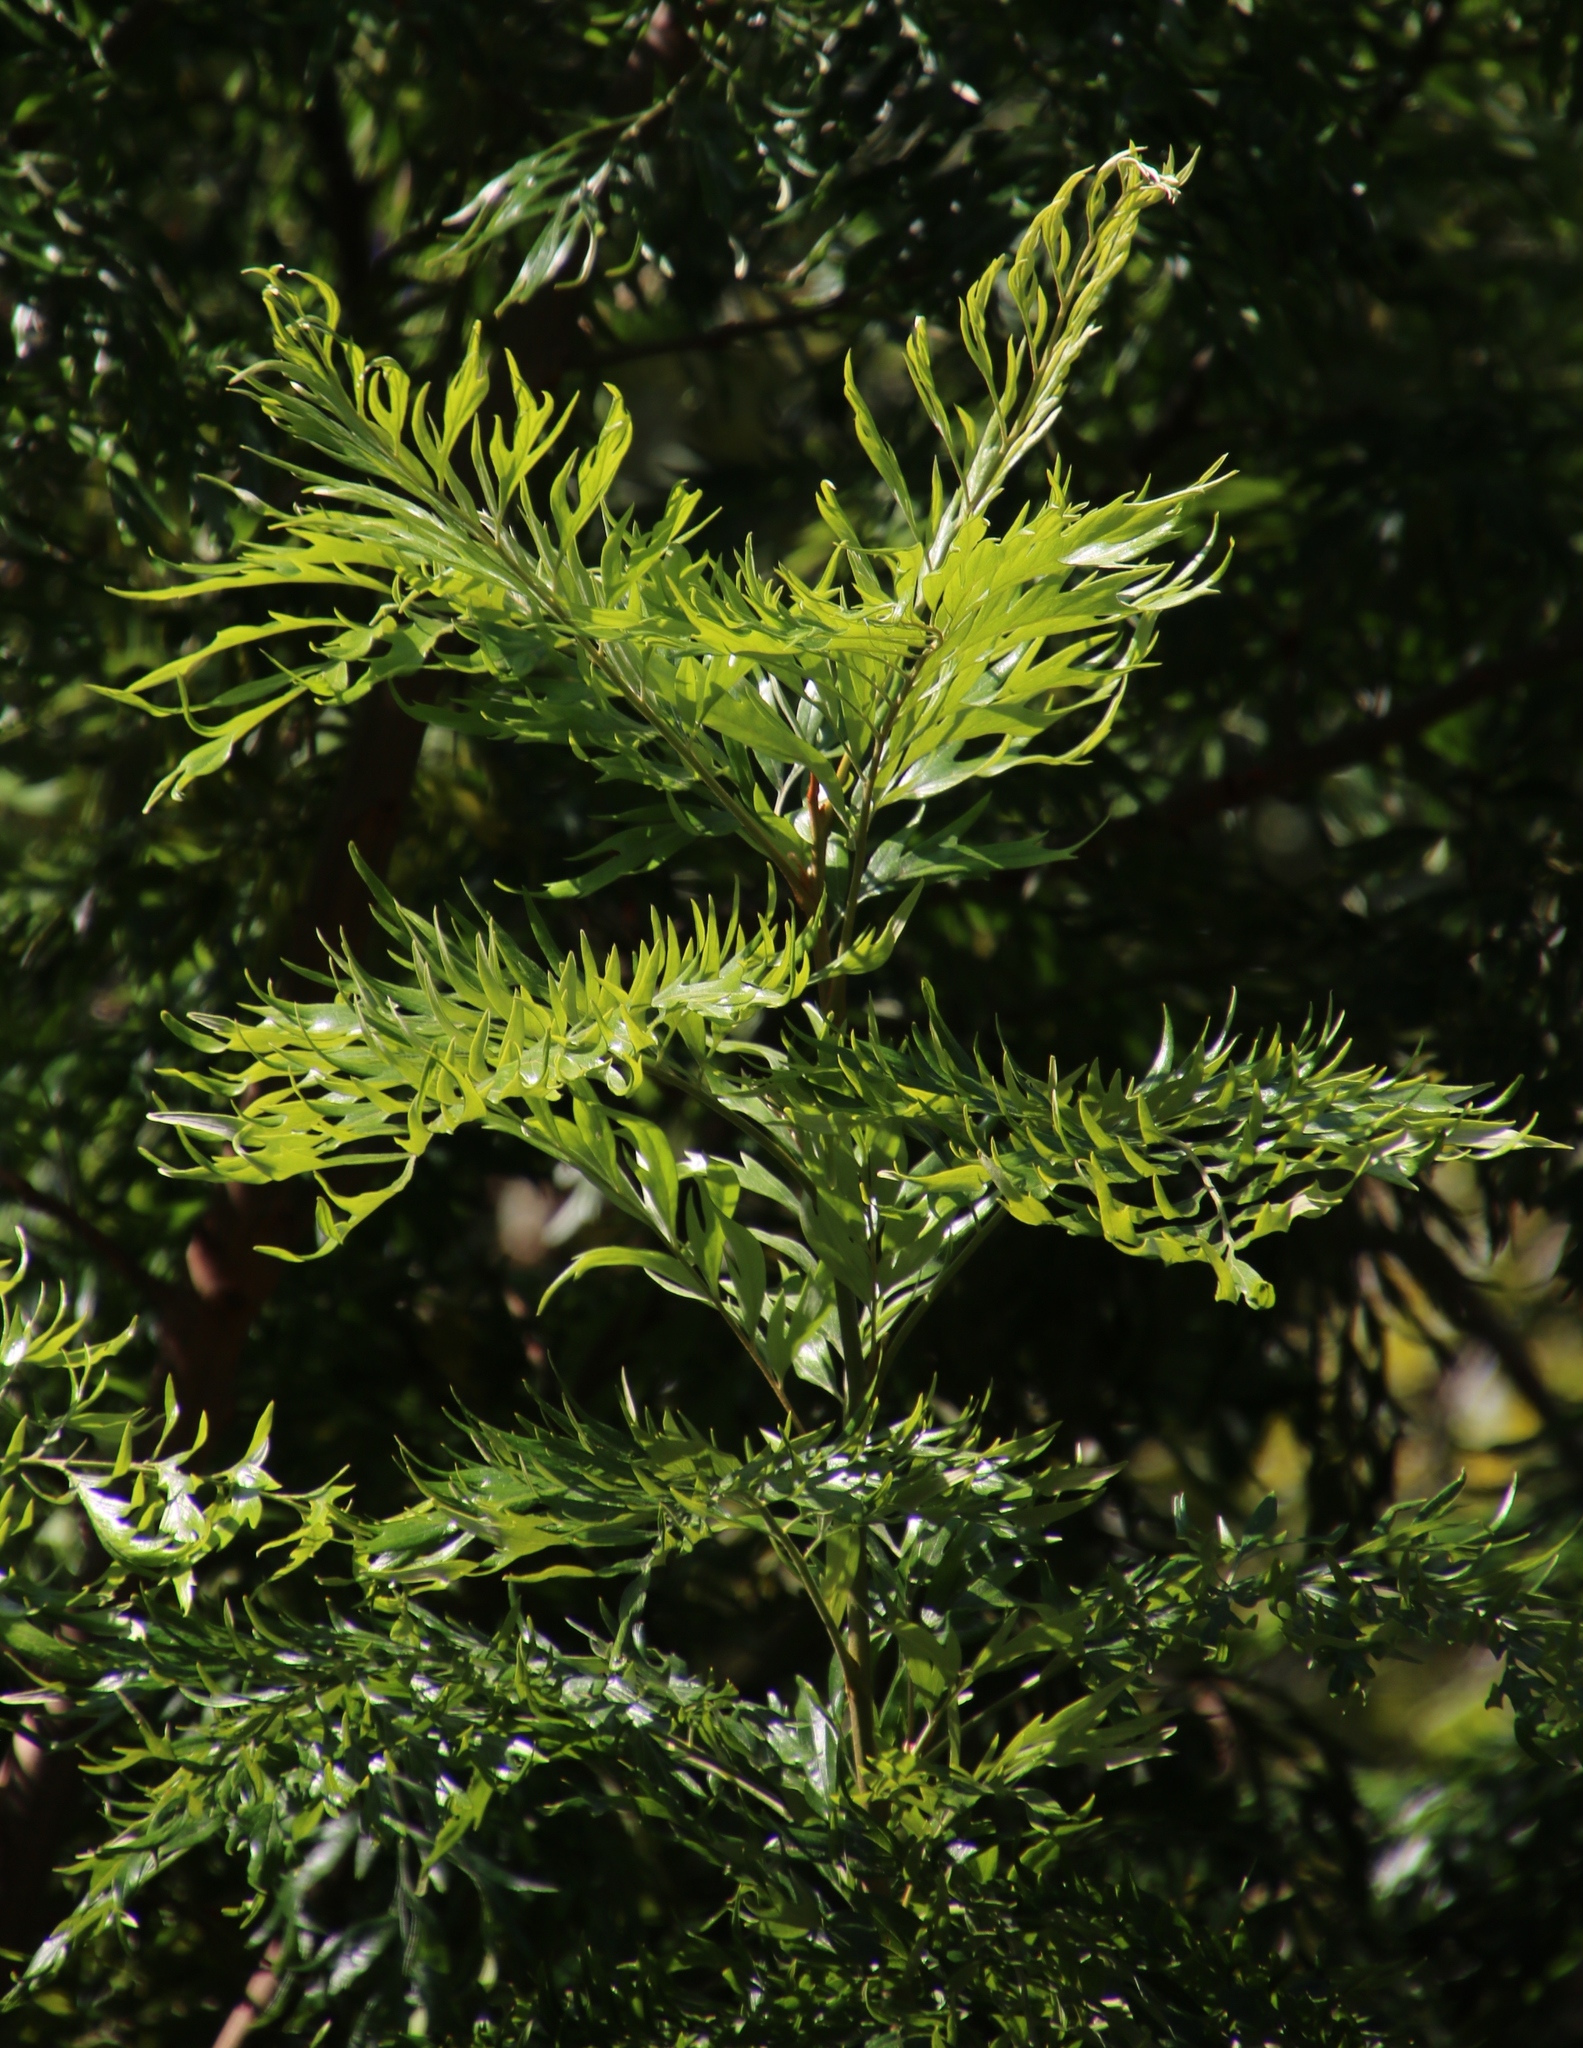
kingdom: Plantae
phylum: Tracheophyta
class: Magnoliopsida
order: Proteales
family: Proteaceae
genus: Grevillea
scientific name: Grevillea robusta
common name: Silkoak
